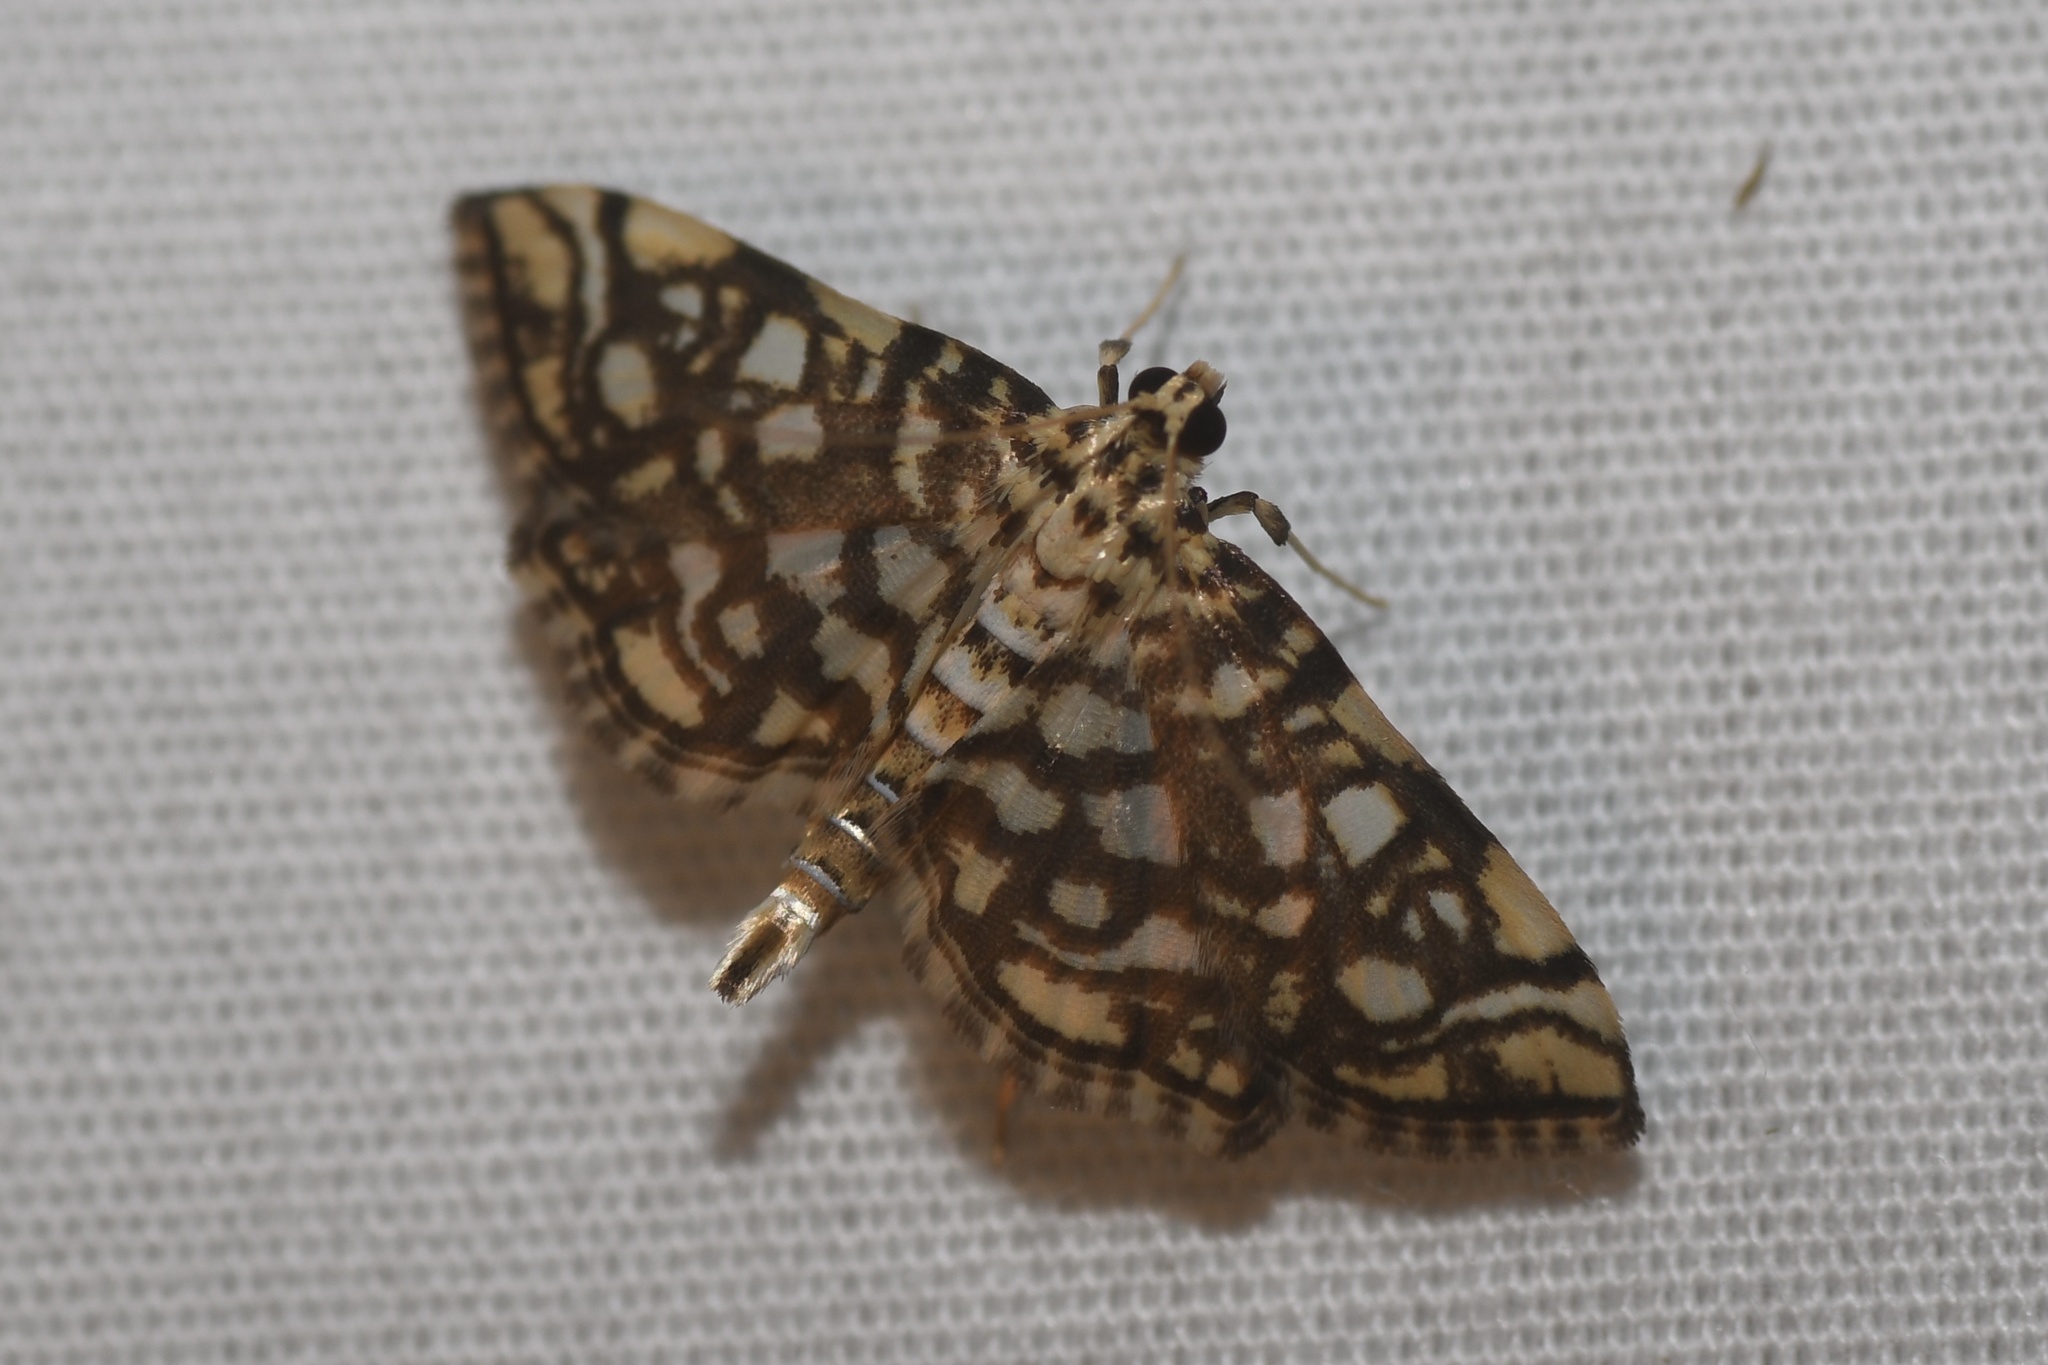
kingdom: Animalia
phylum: Arthropoda
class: Insecta
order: Lepidoptera
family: Crambidae
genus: Lygropia
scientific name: Lygropia rivulalis
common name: Bog lygropia moth
